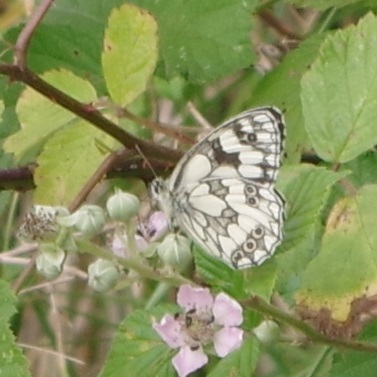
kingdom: Animalia
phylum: Arthropoda
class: Insecta
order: Lepidoptera
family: Nymphalidae
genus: Melanargia
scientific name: Melanargia galathea
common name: Marbled white
